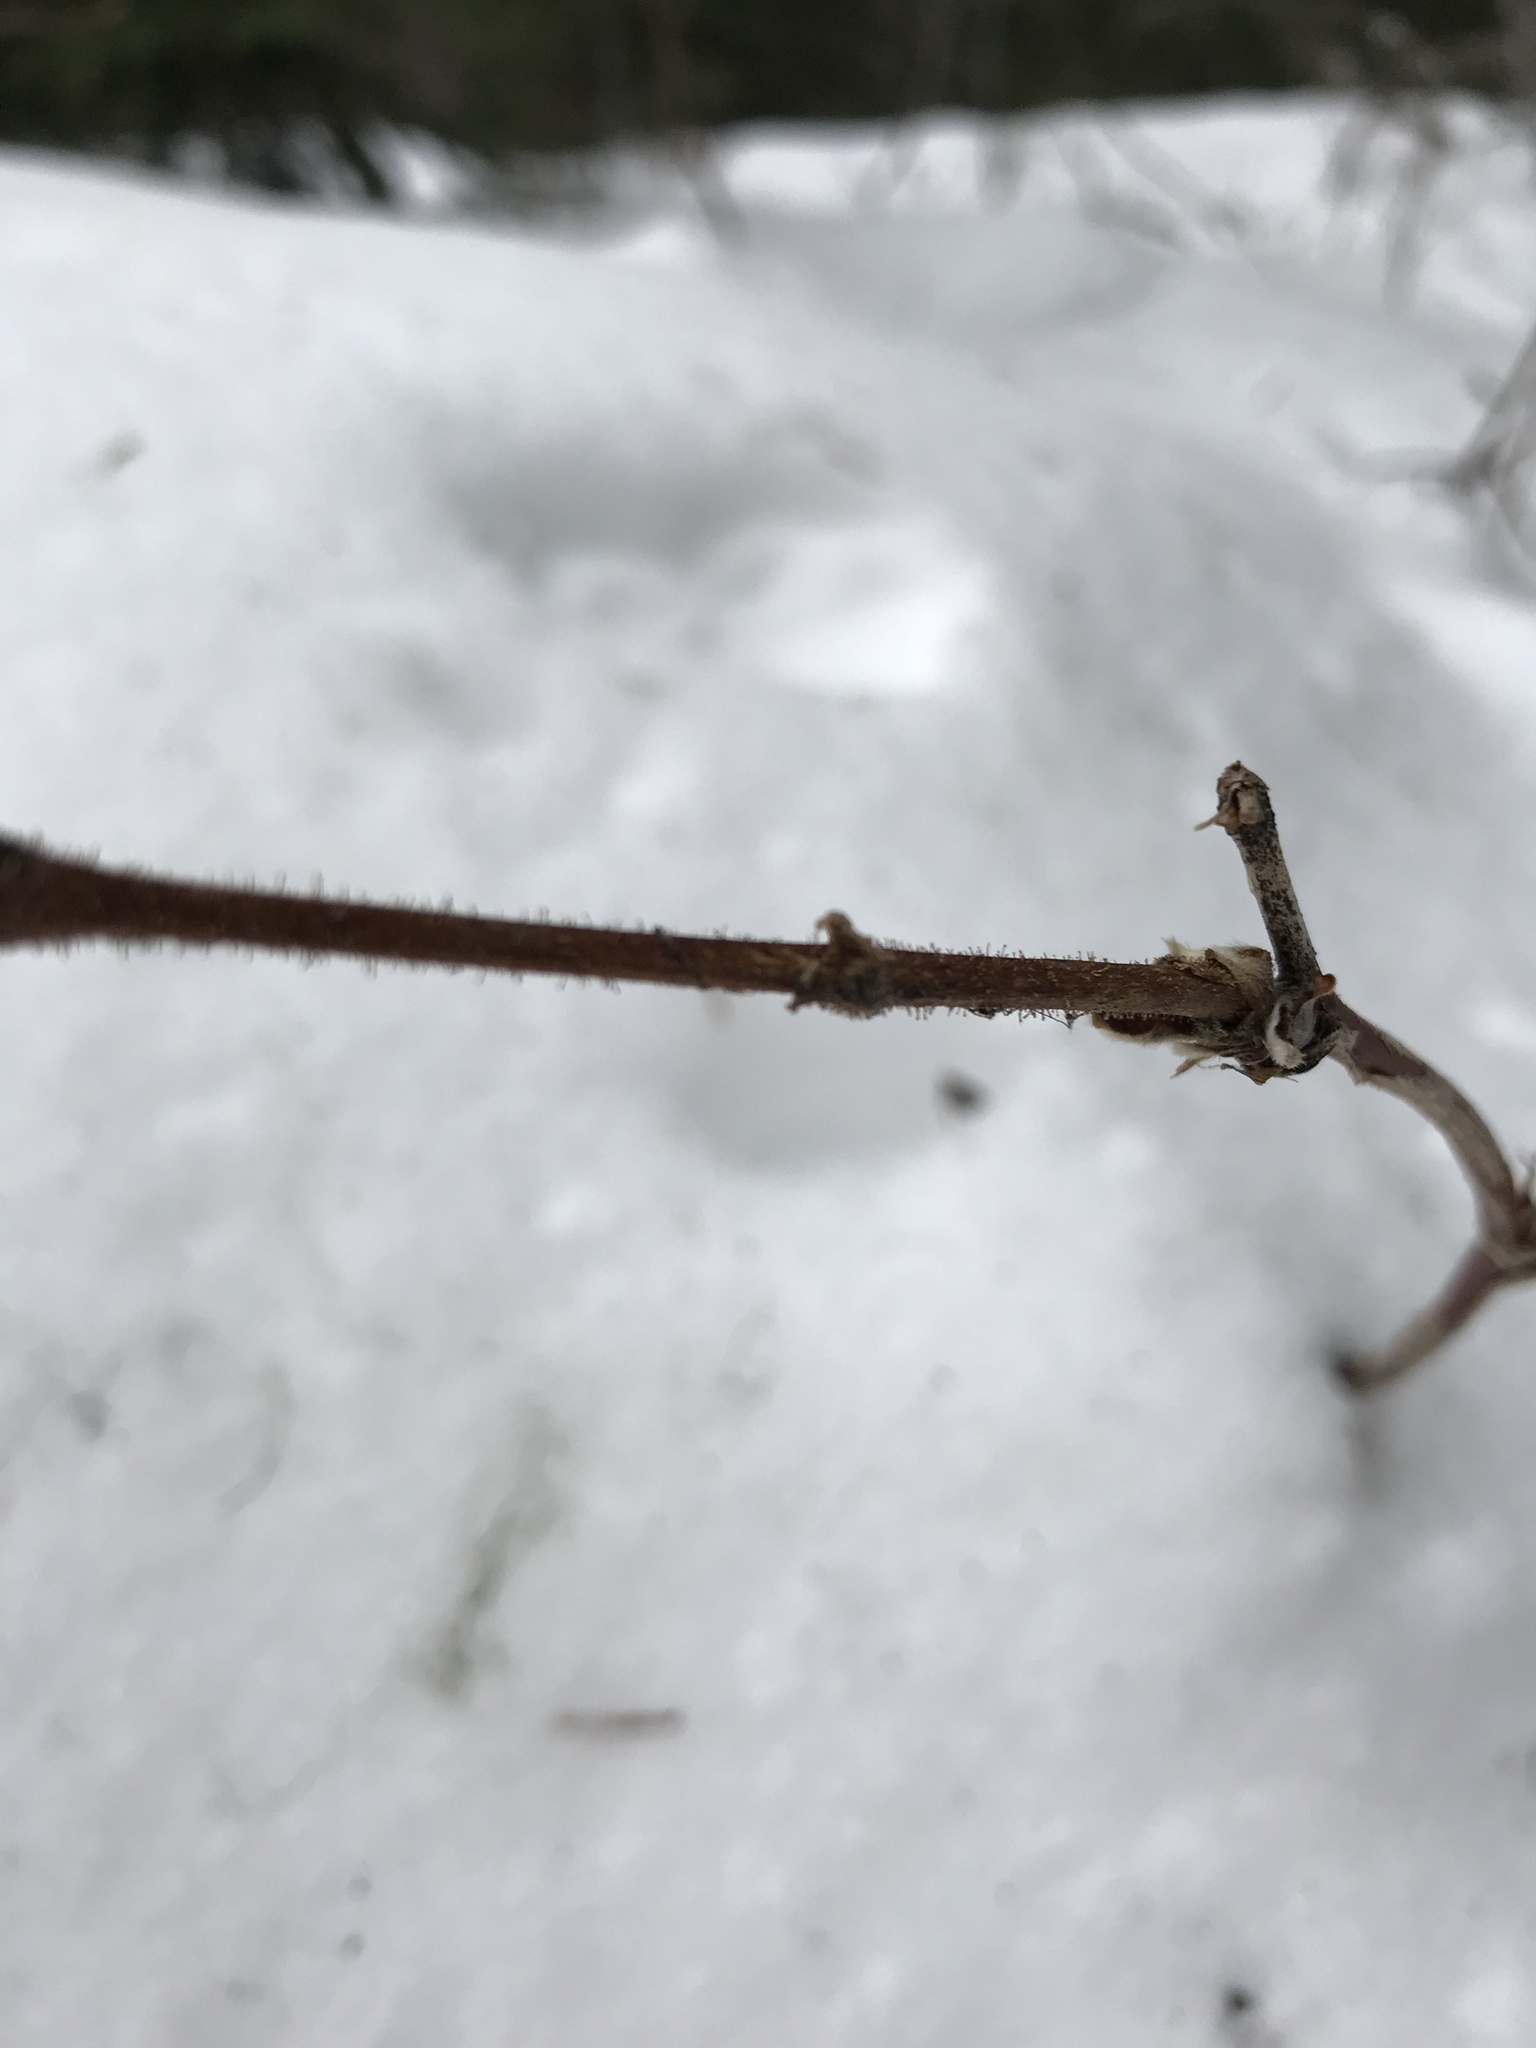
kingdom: Plantae
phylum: Tracheophyta
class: Magnoliopsida
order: Rosales
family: Rosaceae
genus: Rubus
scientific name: Rubus parviflorus
